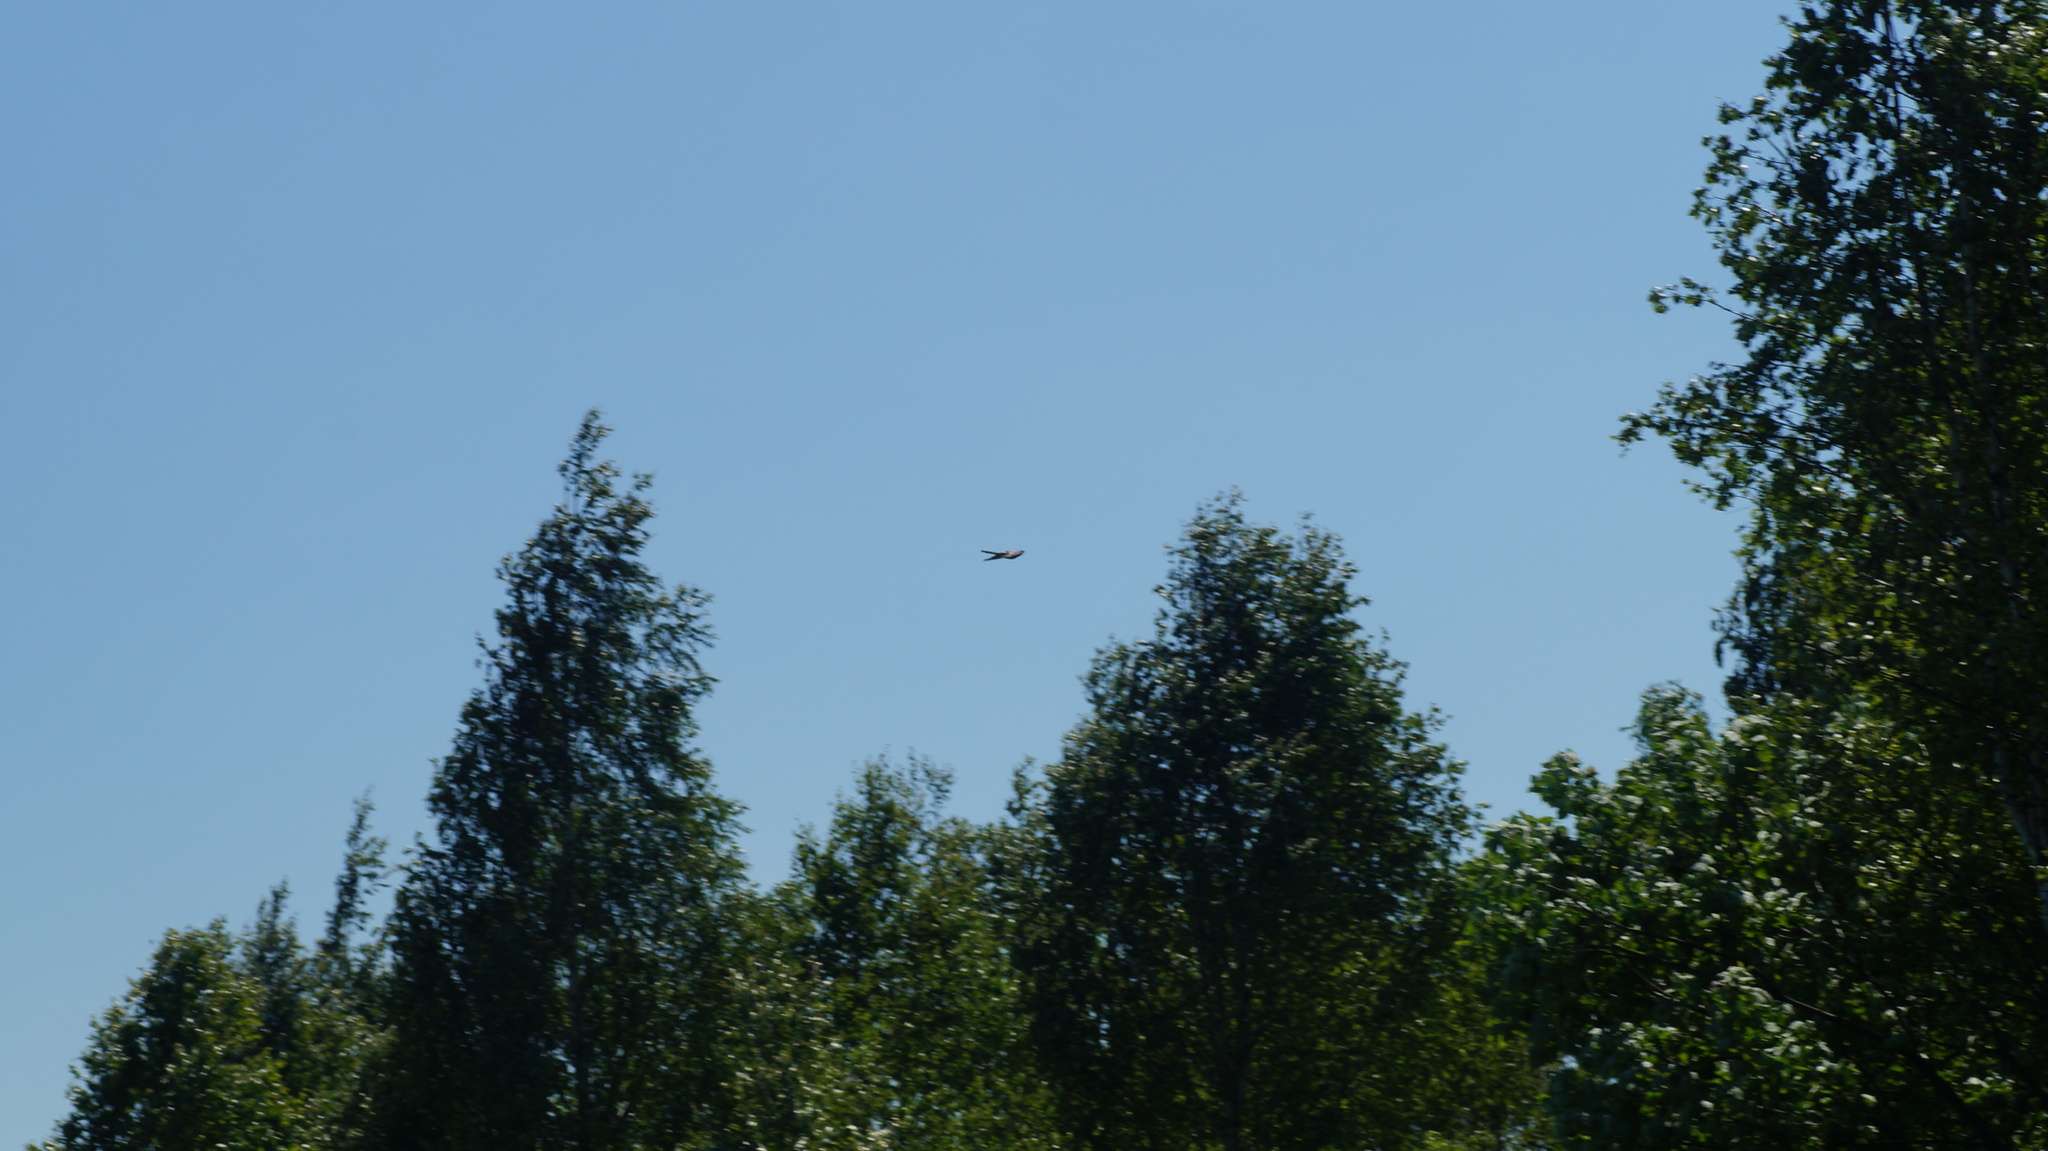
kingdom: Animalia
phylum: Chordata
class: Aves
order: Cuculiformes
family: Cuculidae
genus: Cuculus
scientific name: Cuculus canorus
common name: Common cuckoo
